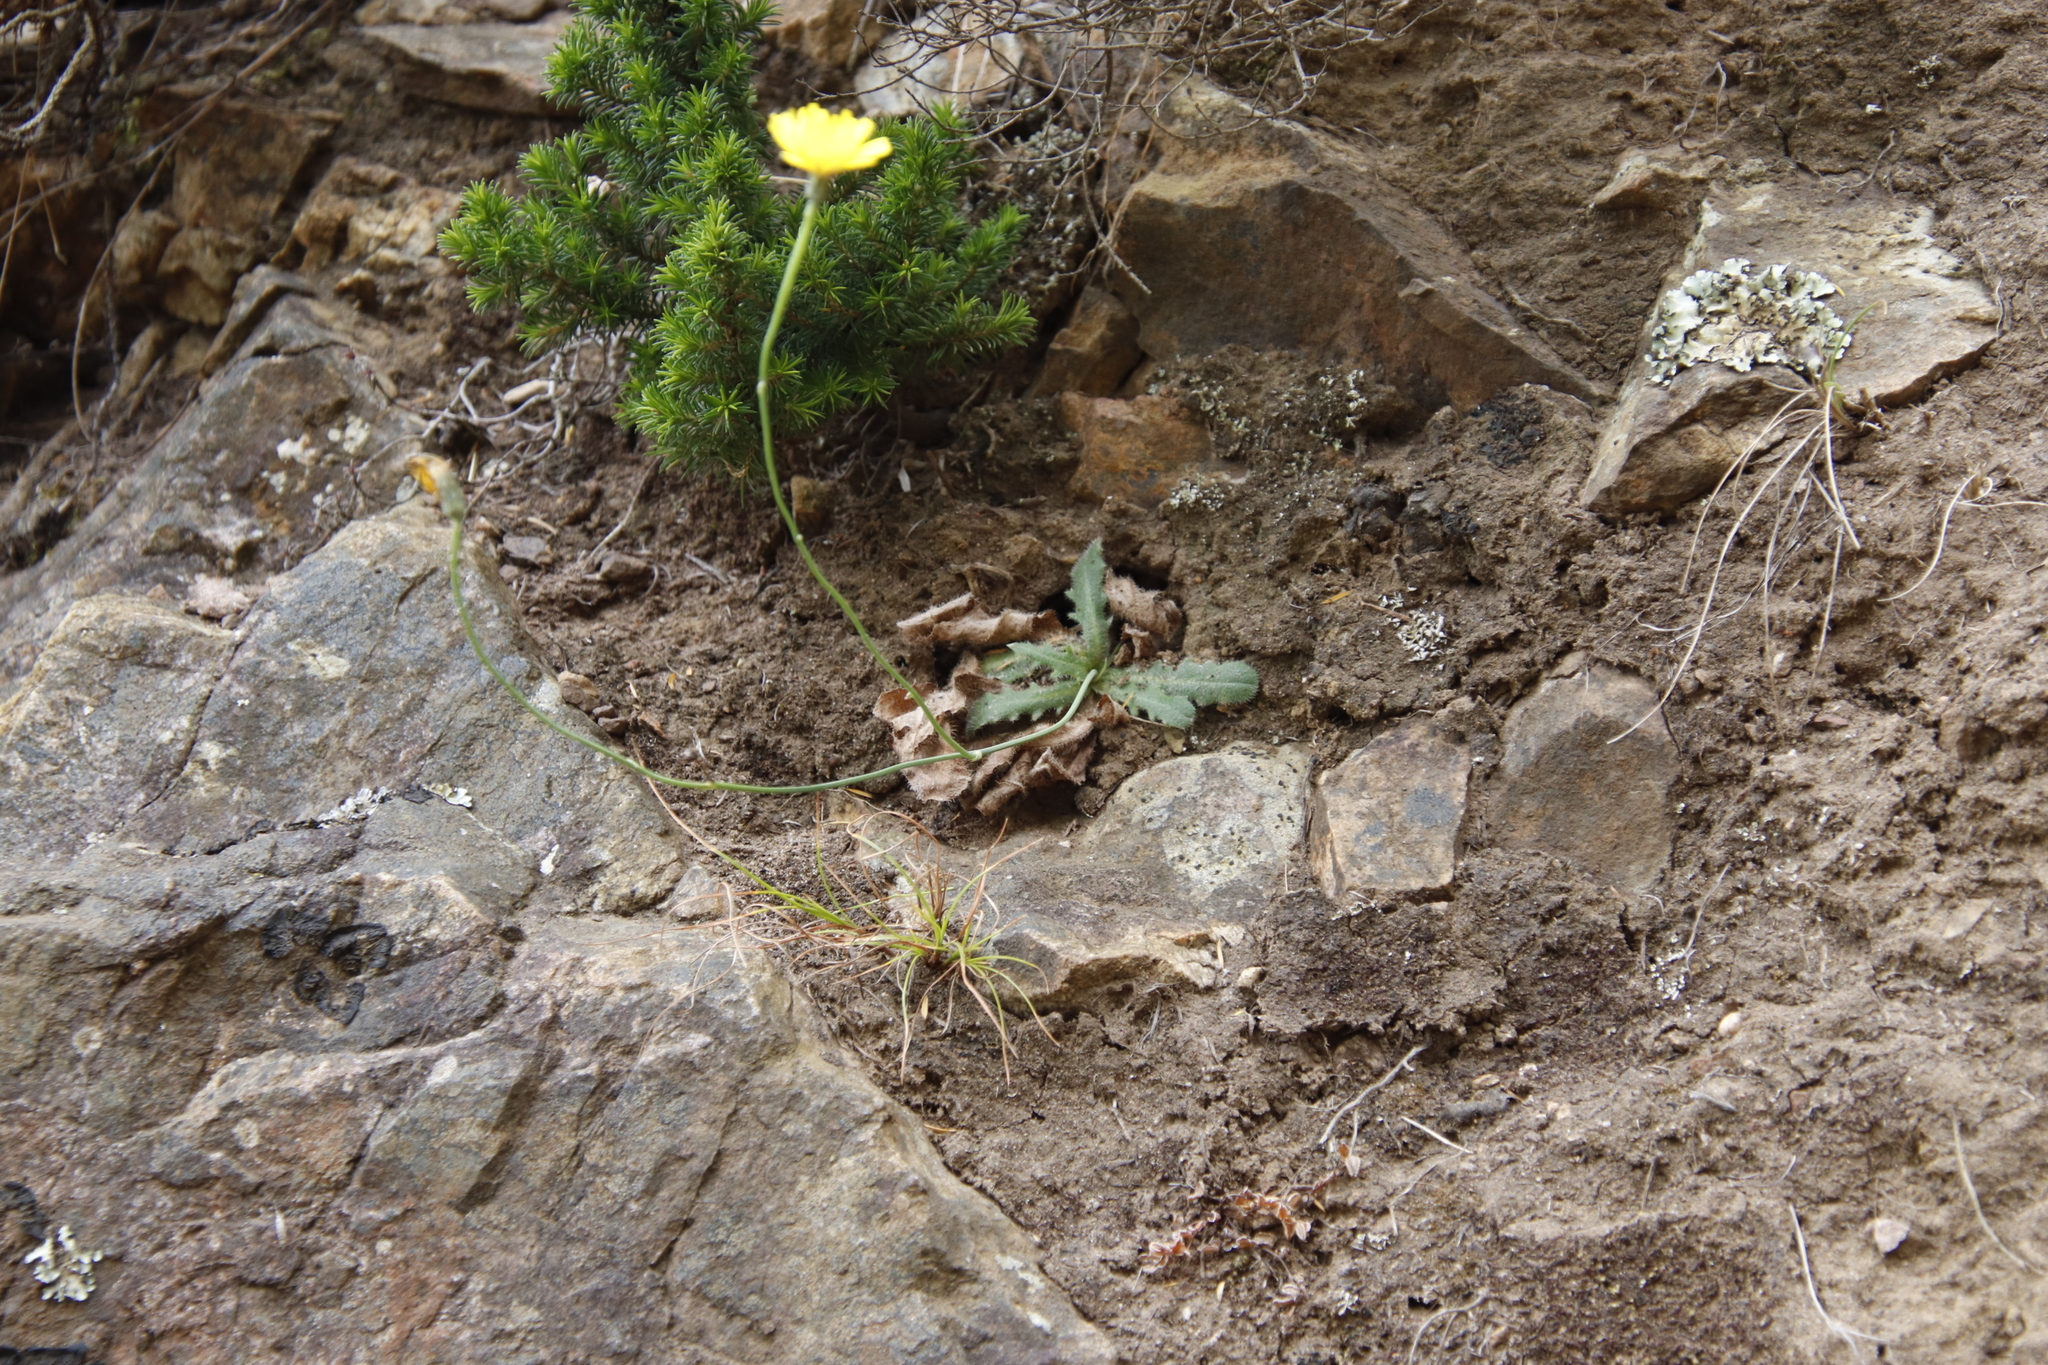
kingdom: Plantae
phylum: Tracheophyta
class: Magnoliopsida
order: Asterales
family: Asteraceae
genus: Hypochaeris
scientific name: Hypochaeris radicata
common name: Flatweed
